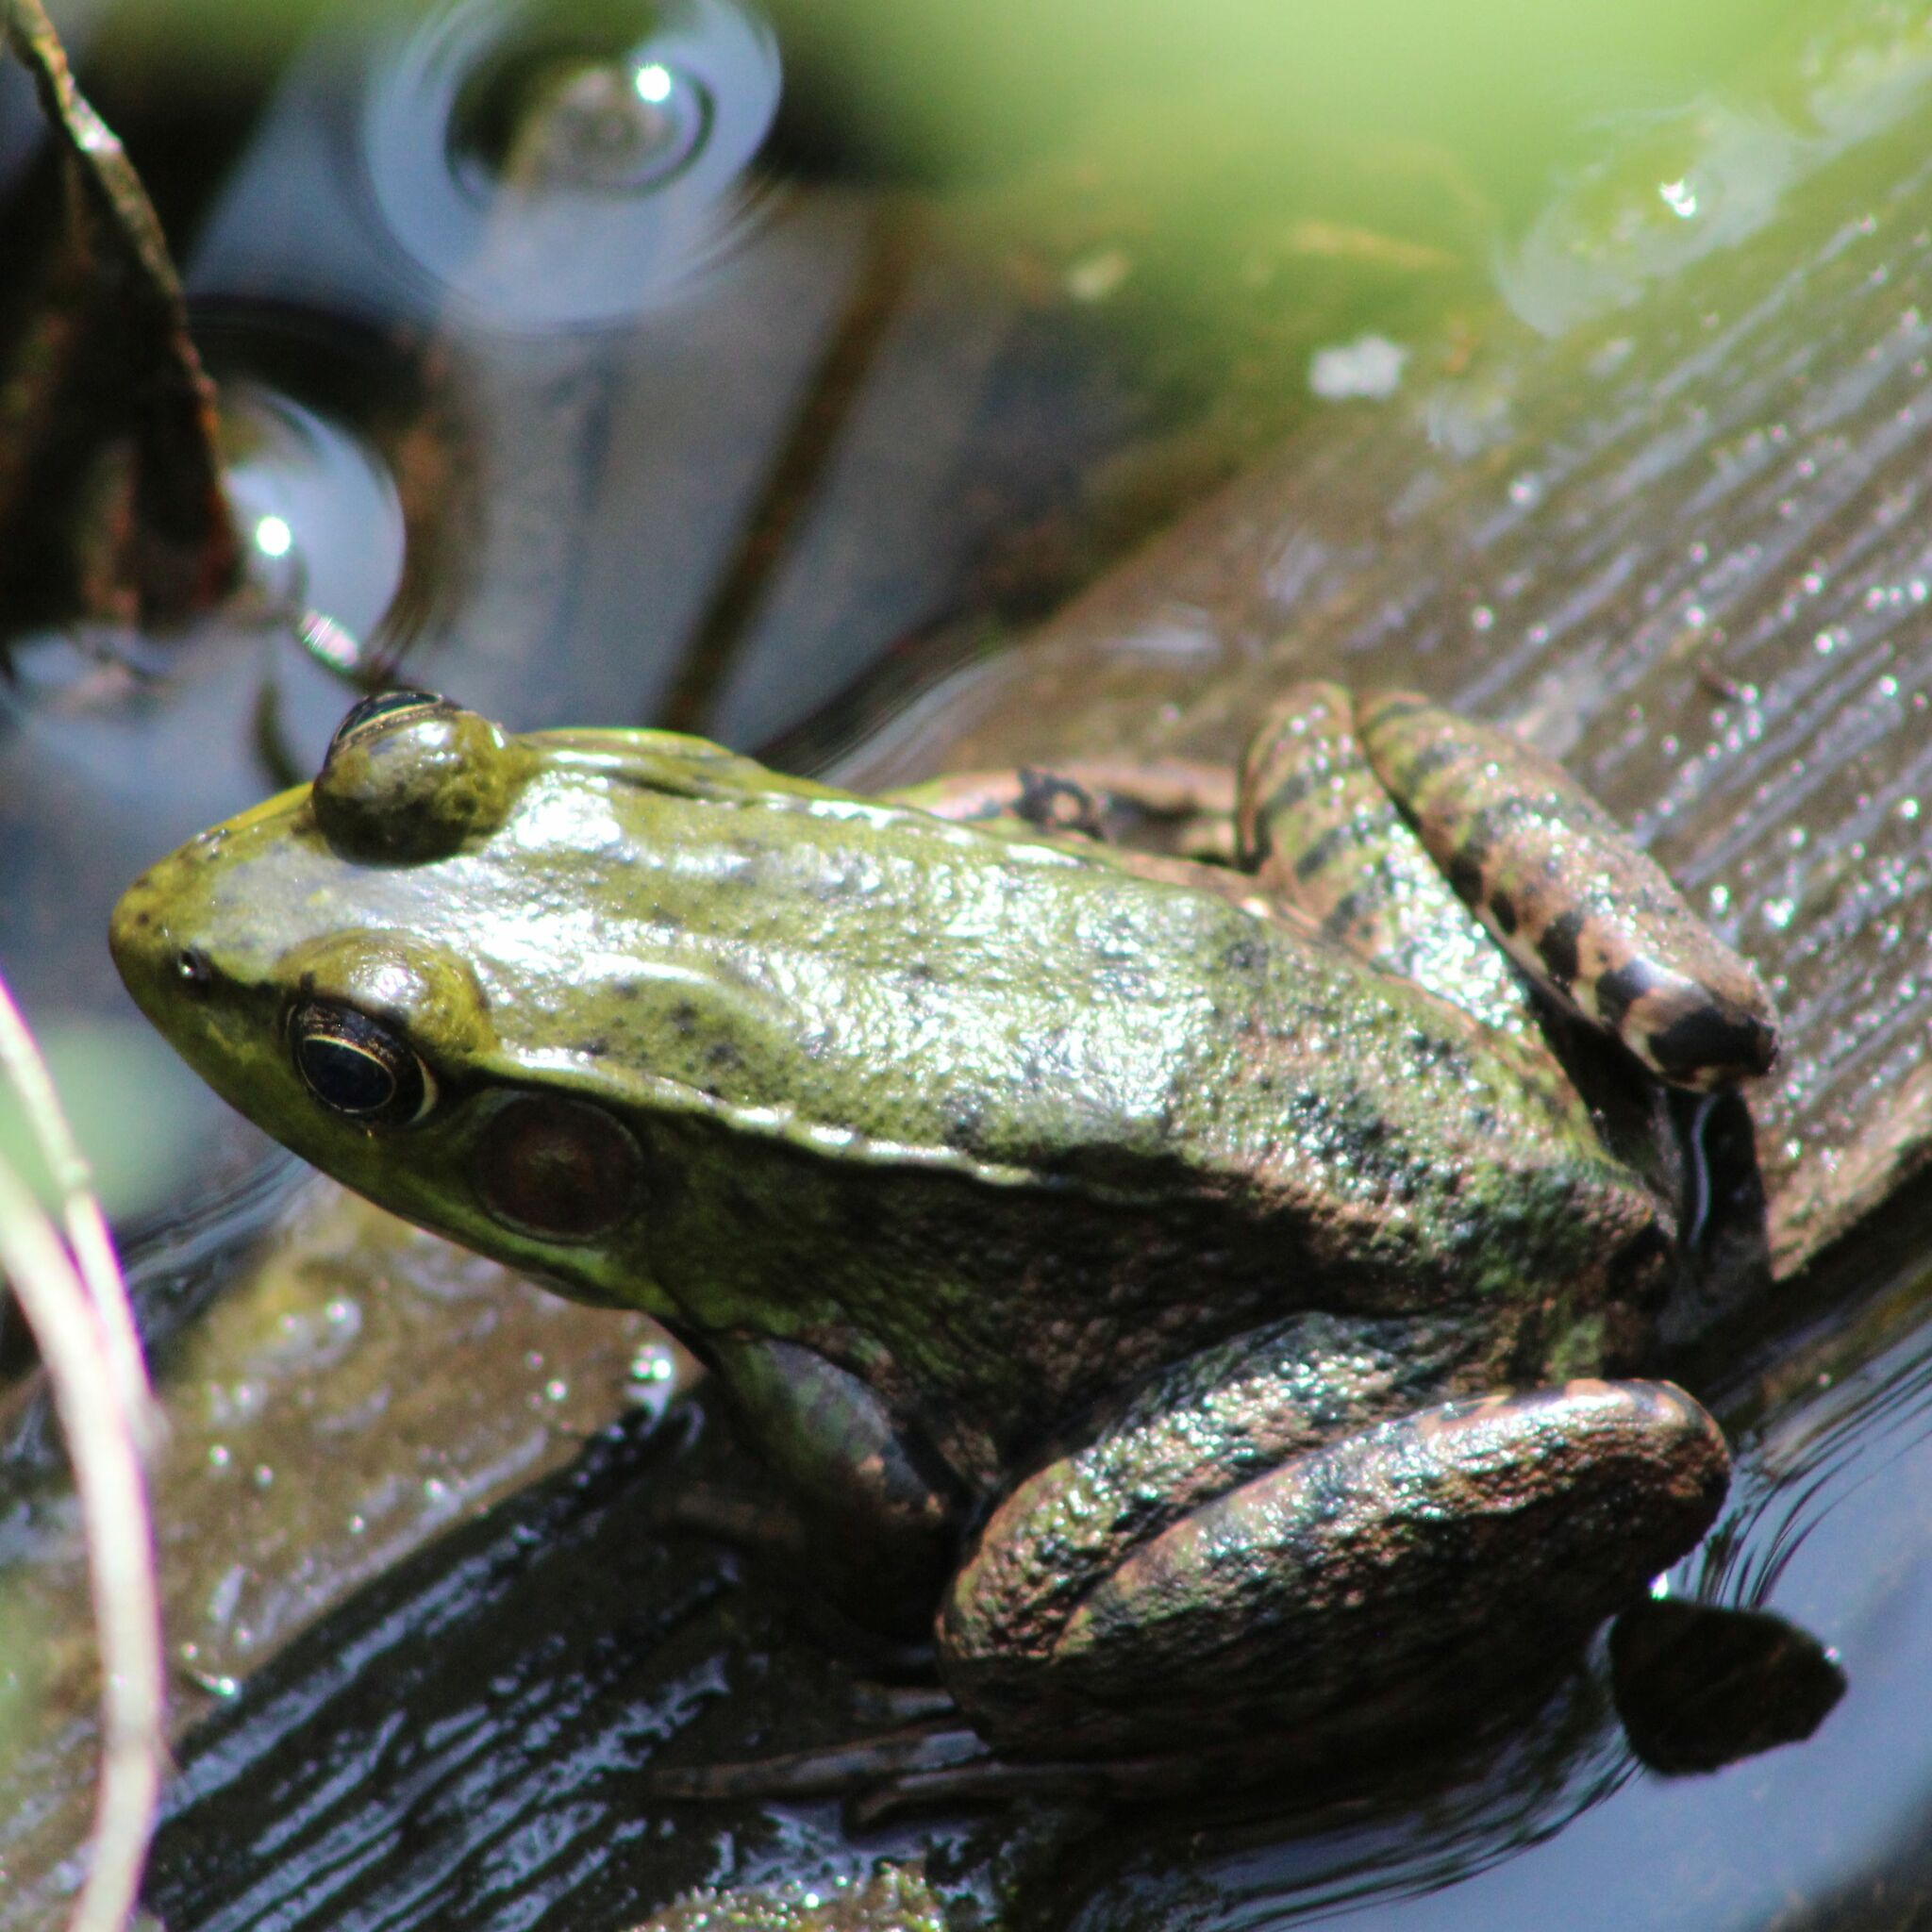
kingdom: Animalia
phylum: Chordata
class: Amphibia
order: Anura
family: Ranidae
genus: Lithobates
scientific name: Lithobates clamitans
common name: Green frog
